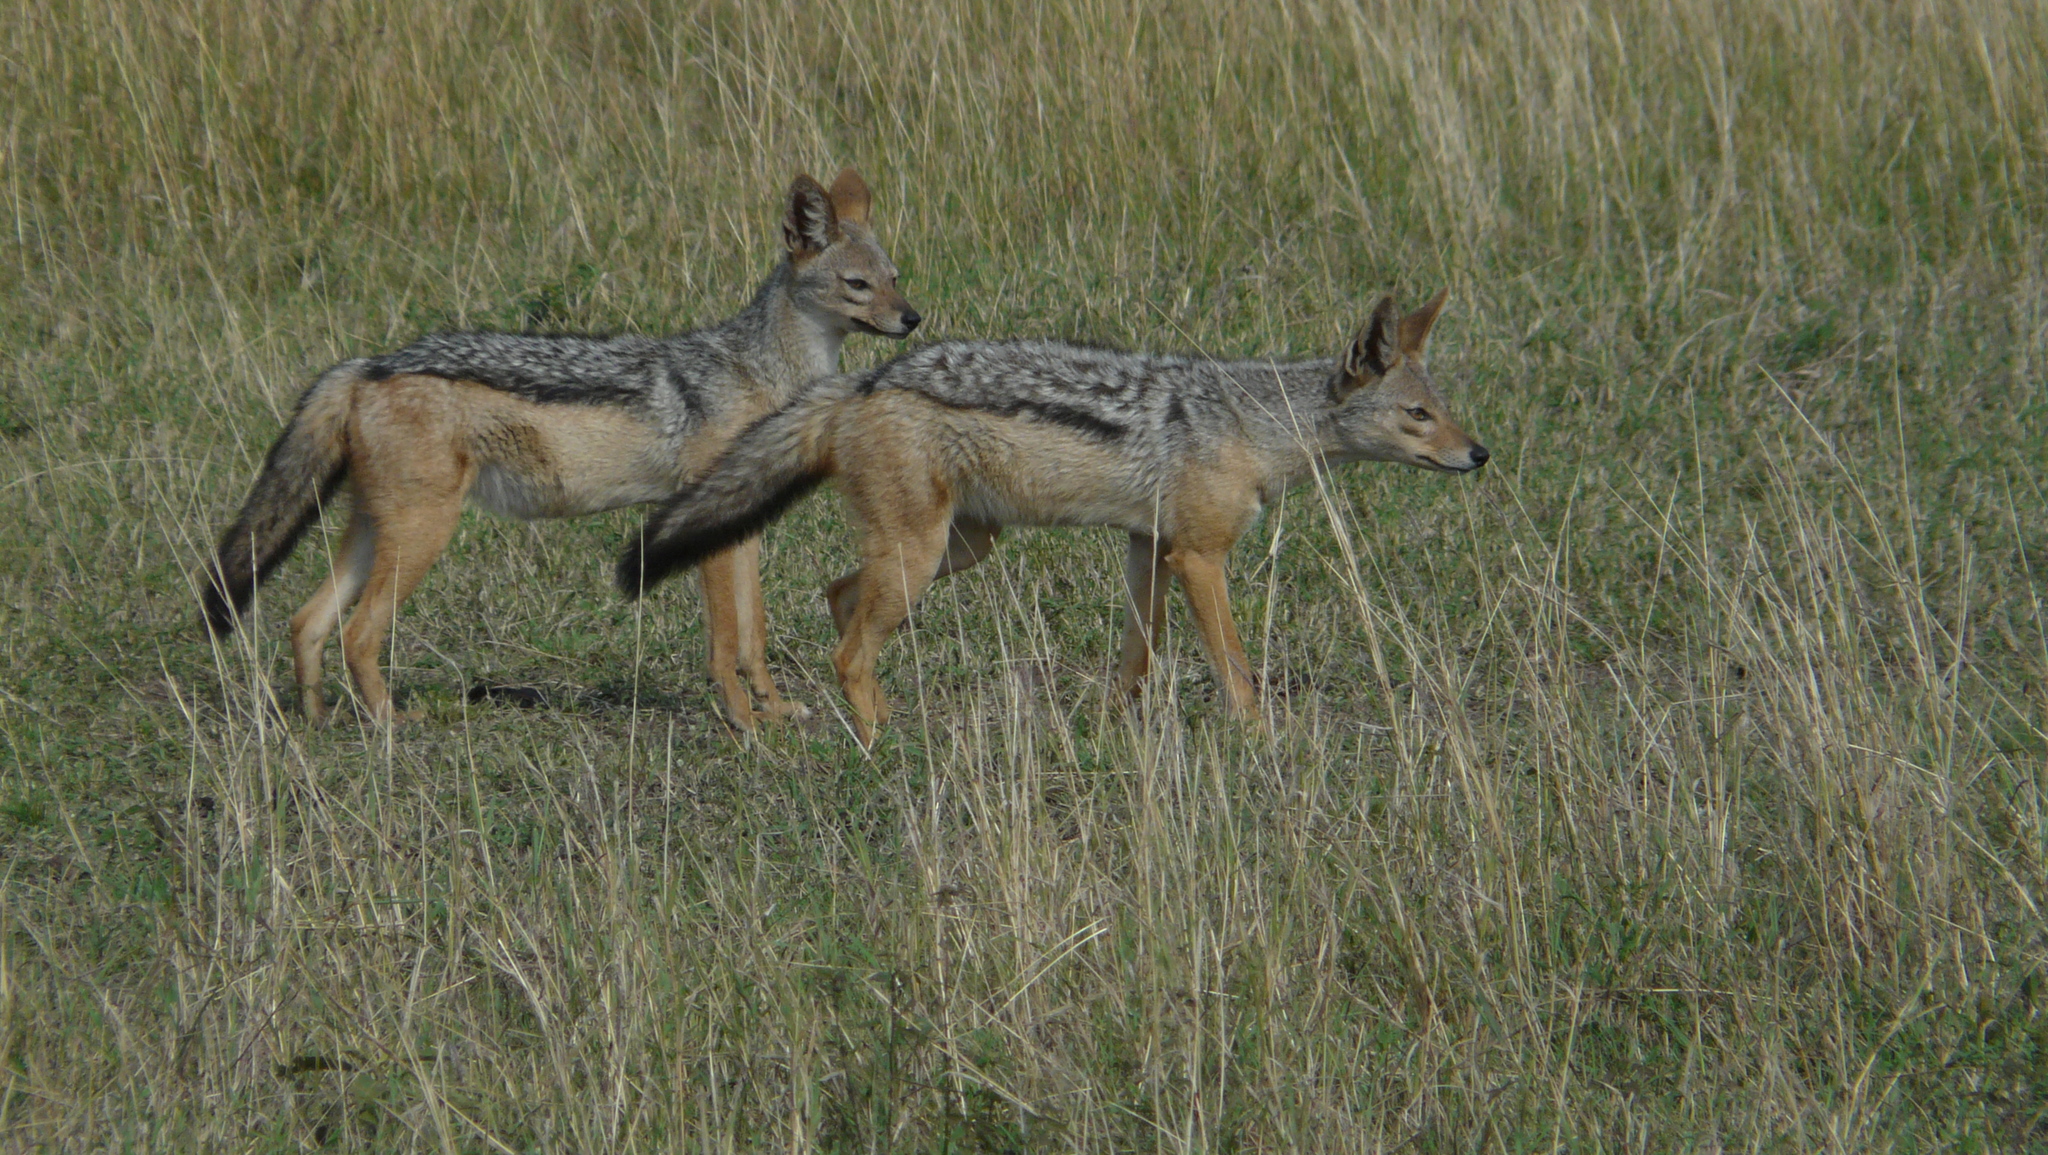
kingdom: Animalia
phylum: Chordata
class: Mammalia
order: Carnivora
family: Canidae
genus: Lupulella
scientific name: Lupulella
